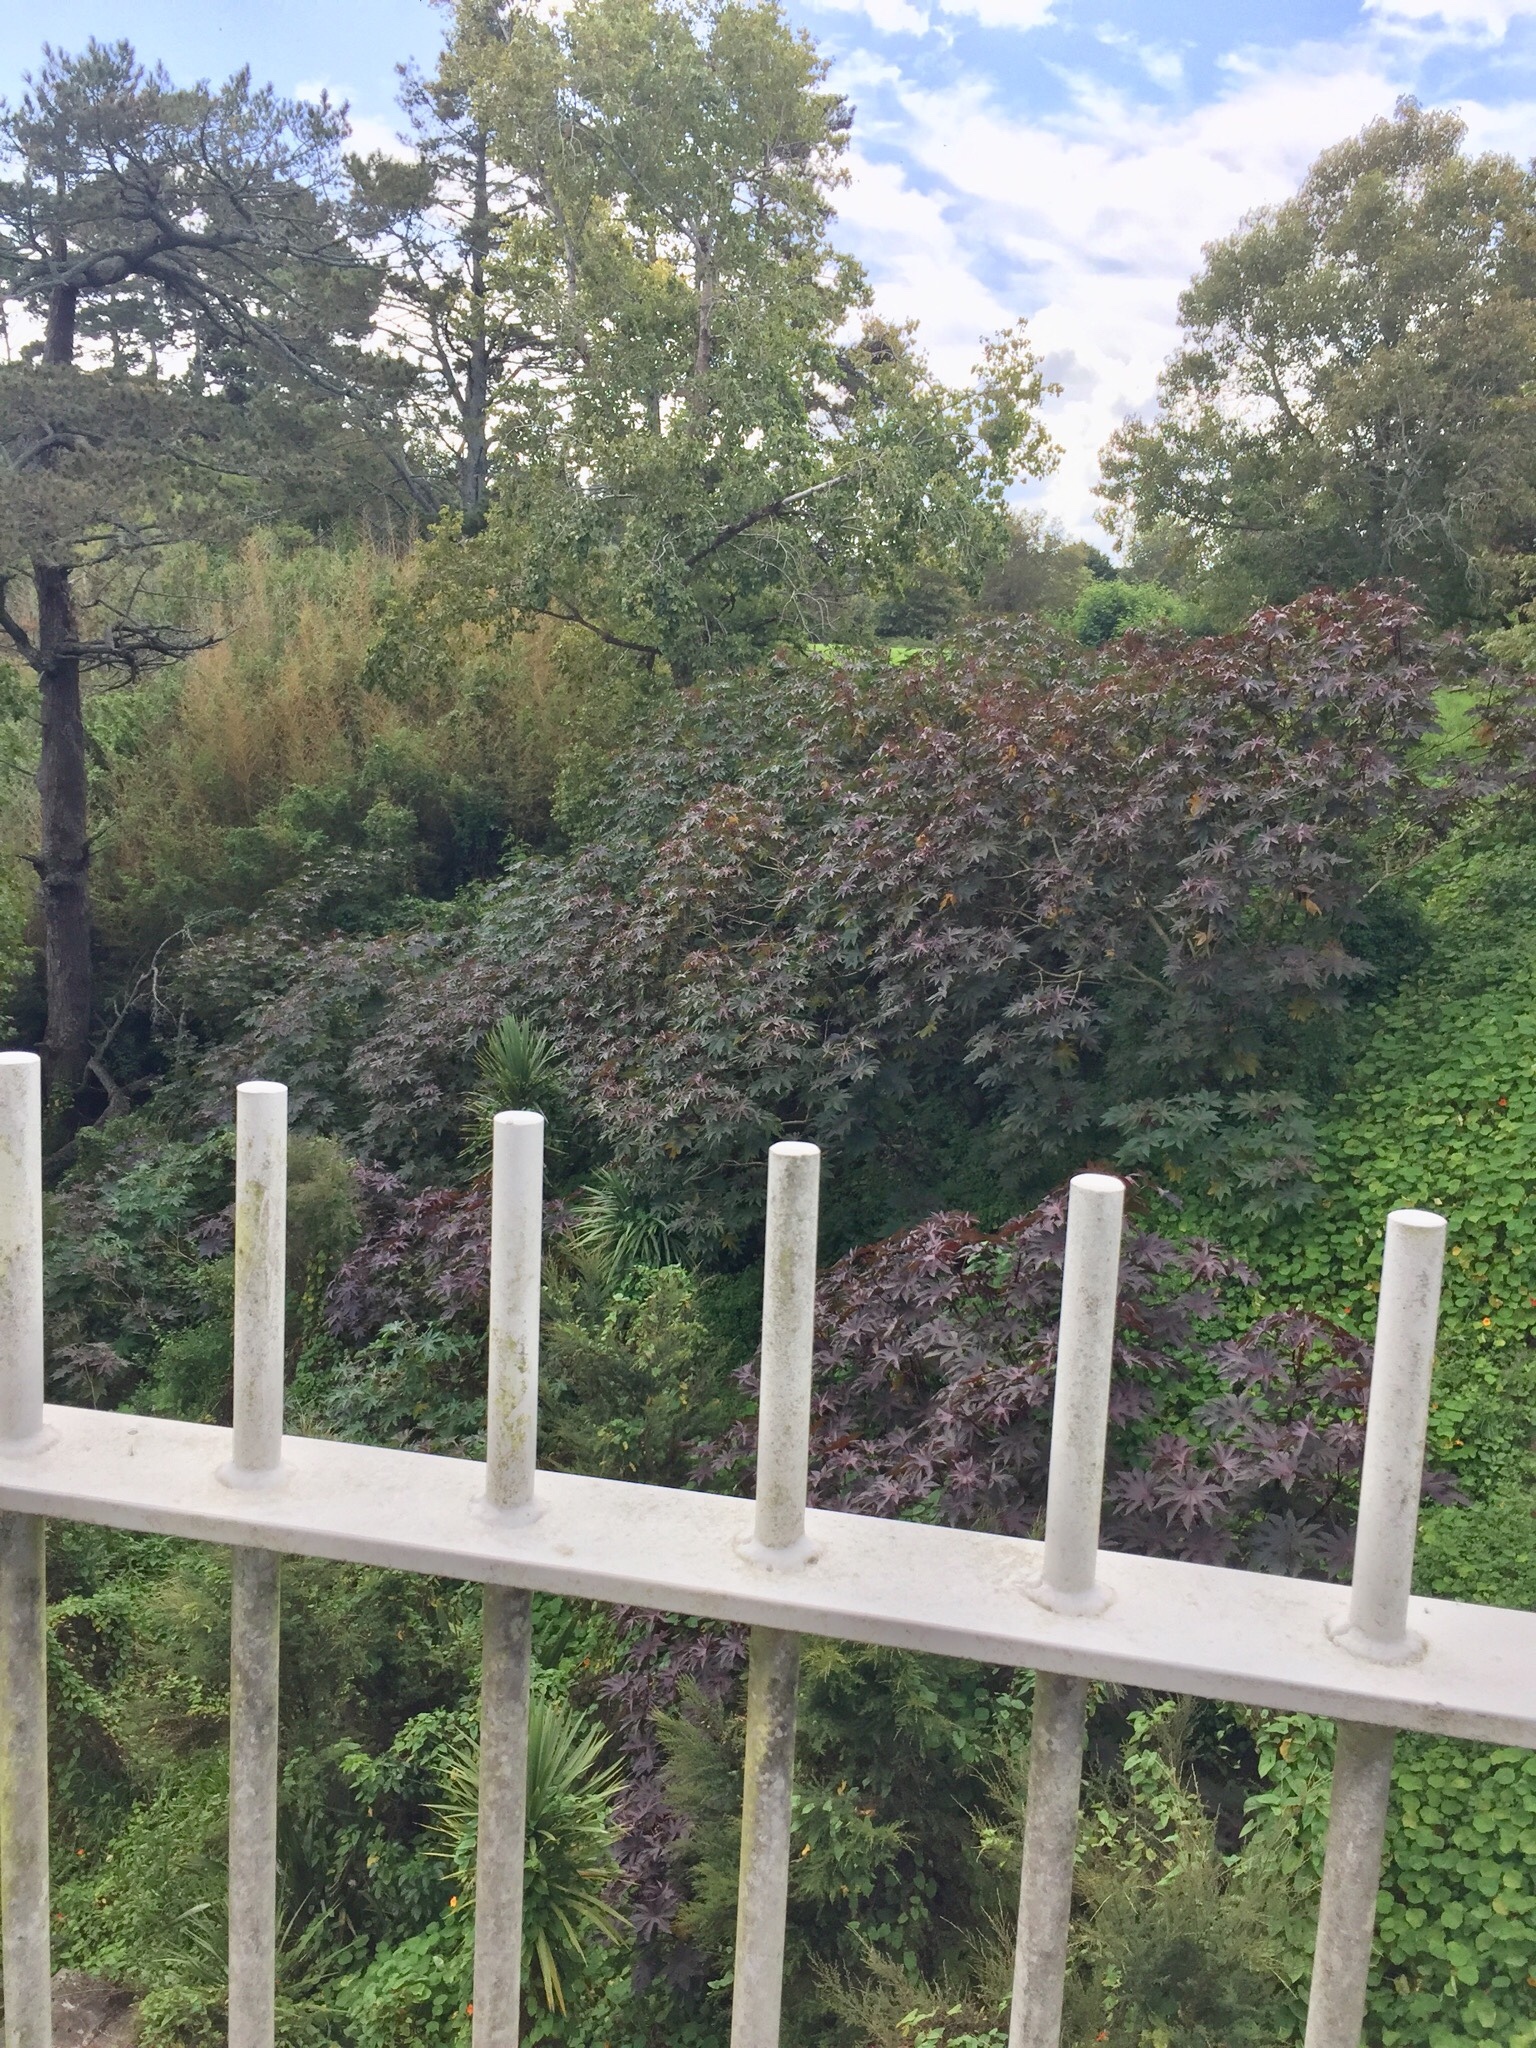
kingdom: Plantae
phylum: Tracheophyta
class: Magnoliopsida
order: Malpighiales
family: Euphorbiaceae
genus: Ricinus
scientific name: Ricinus communis
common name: Castor-oil-plant
